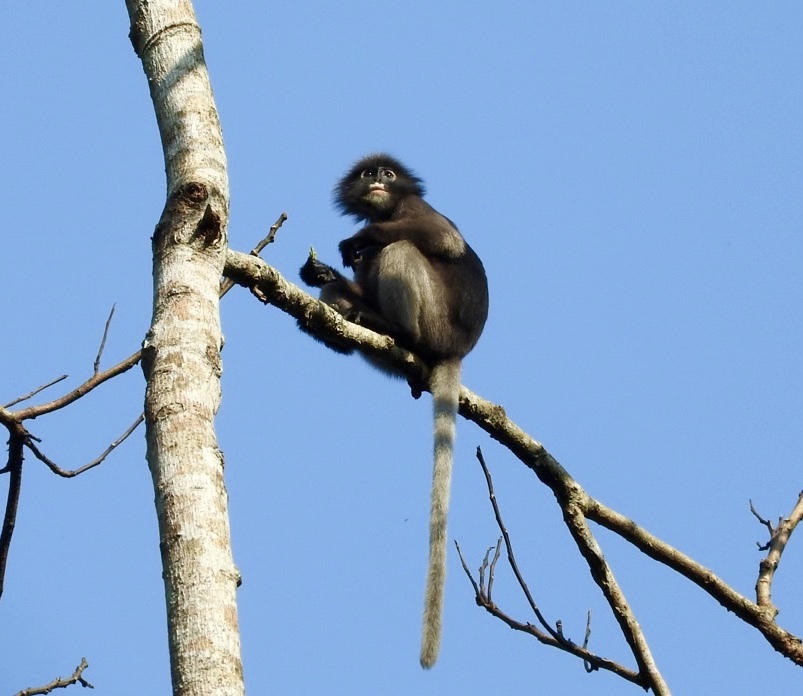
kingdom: Animalia
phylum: Chordata
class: Mammalia
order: Primates
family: Cercopithecidae
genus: Trachypithecus
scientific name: Trachypithecus obscurus
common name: Dusky leaf-monkey
